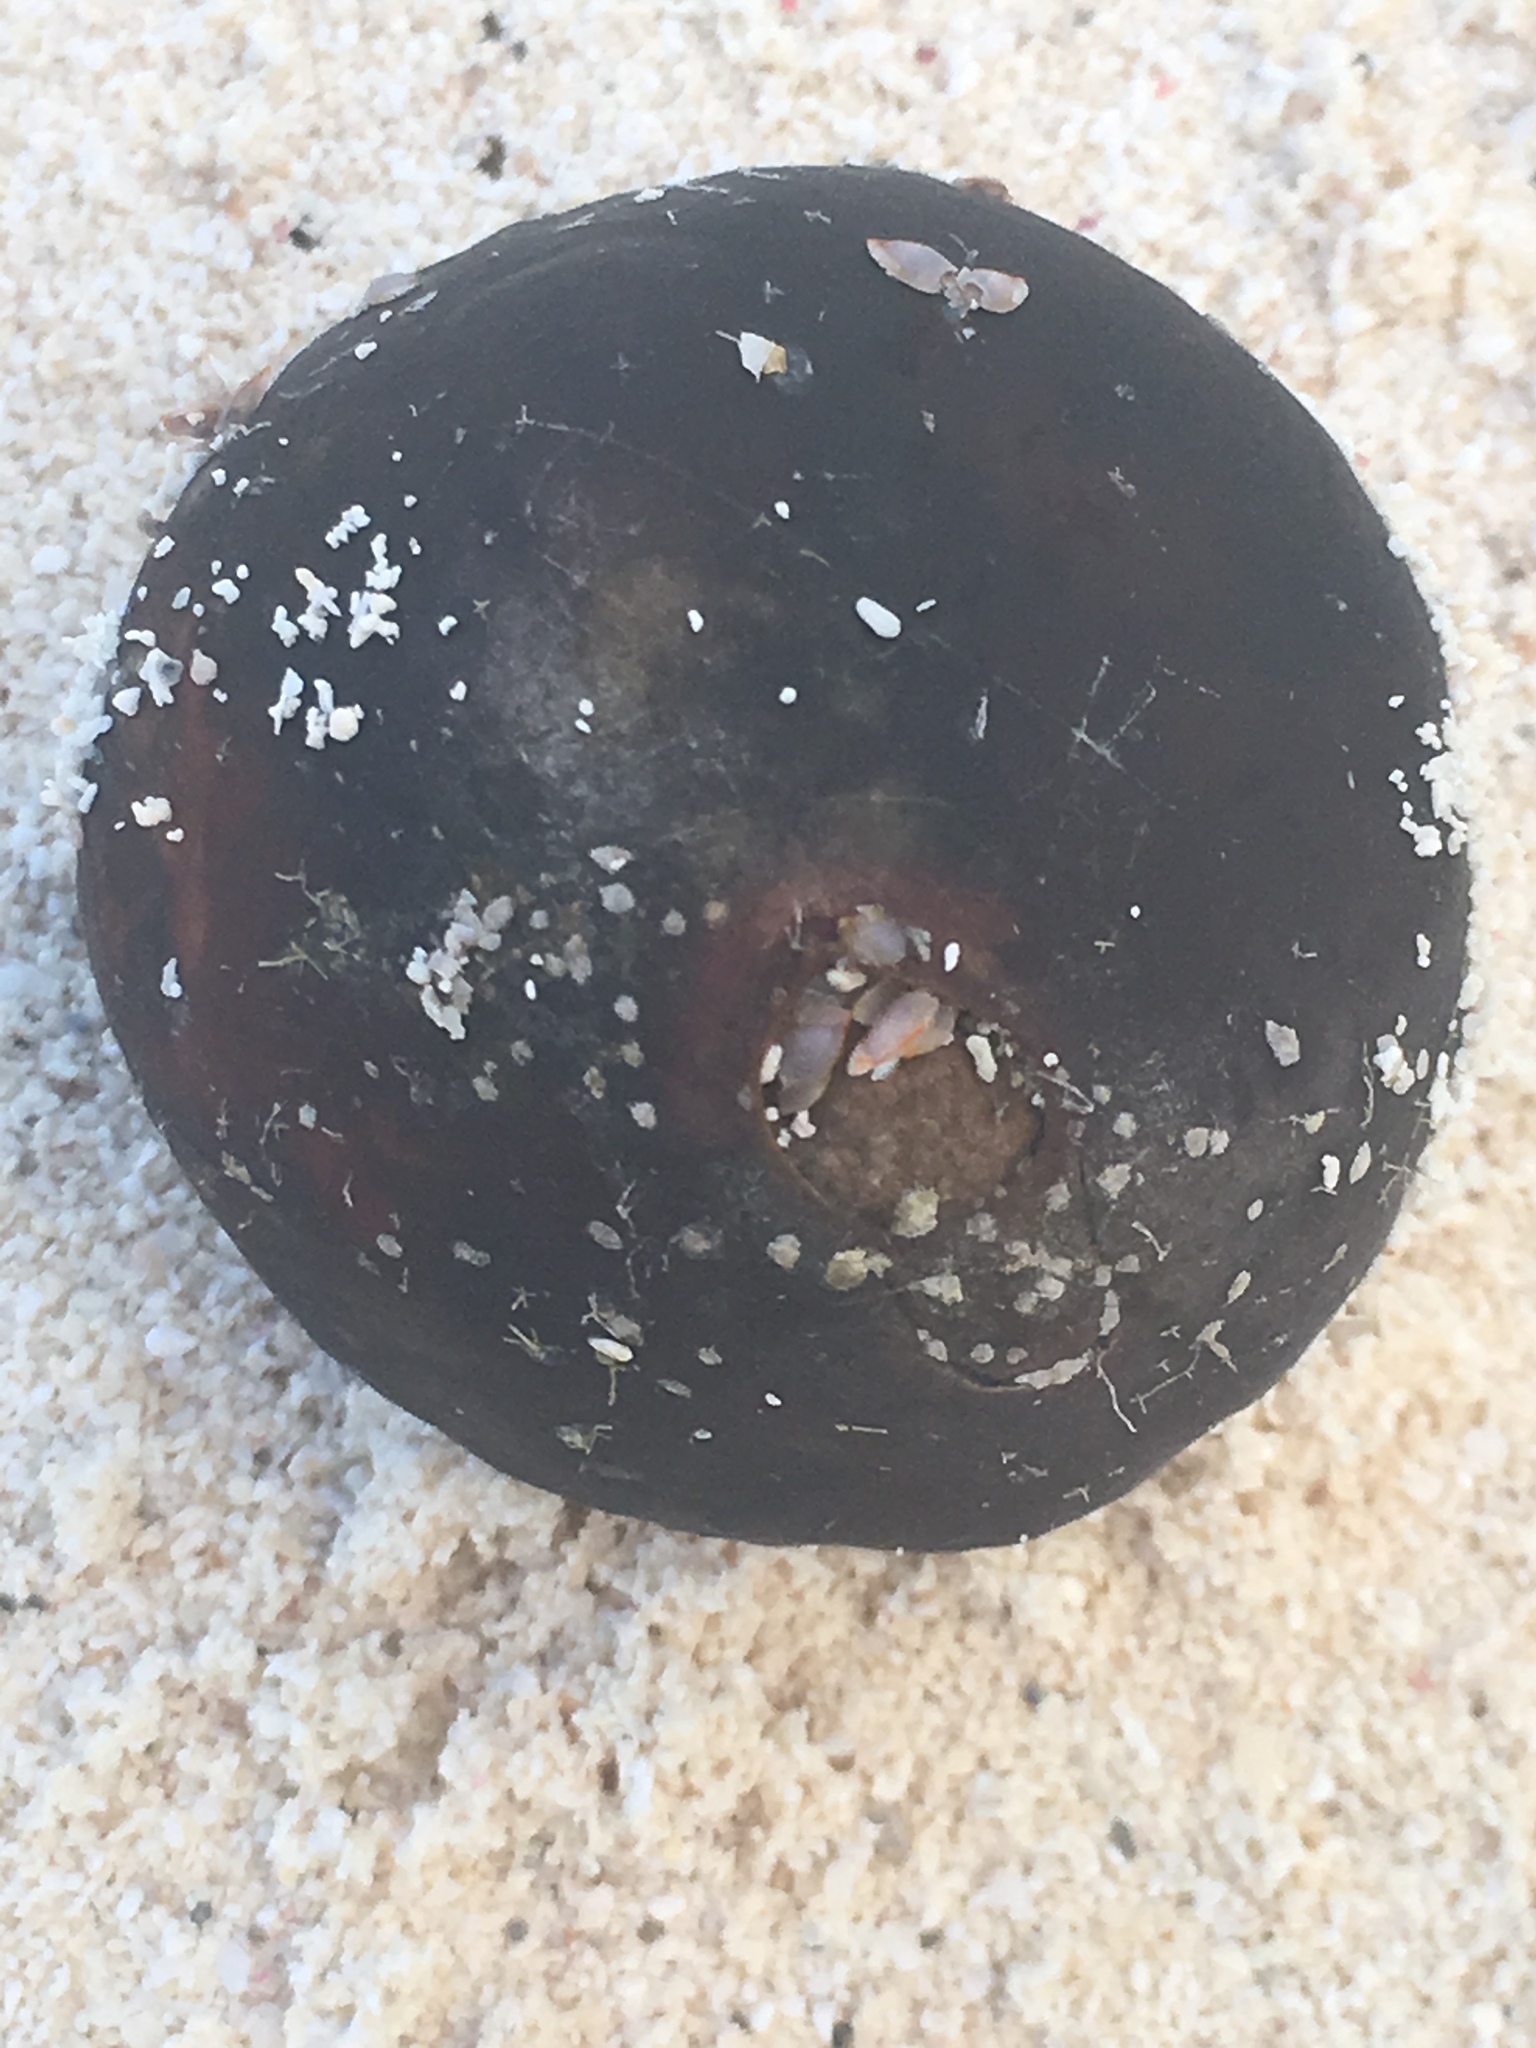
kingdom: Plantae
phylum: Tracheophyta
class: Liliopsida
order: Arecales
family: Arecaceae
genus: Manicaria
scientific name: Manicaria saccifera
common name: Sea coconut
